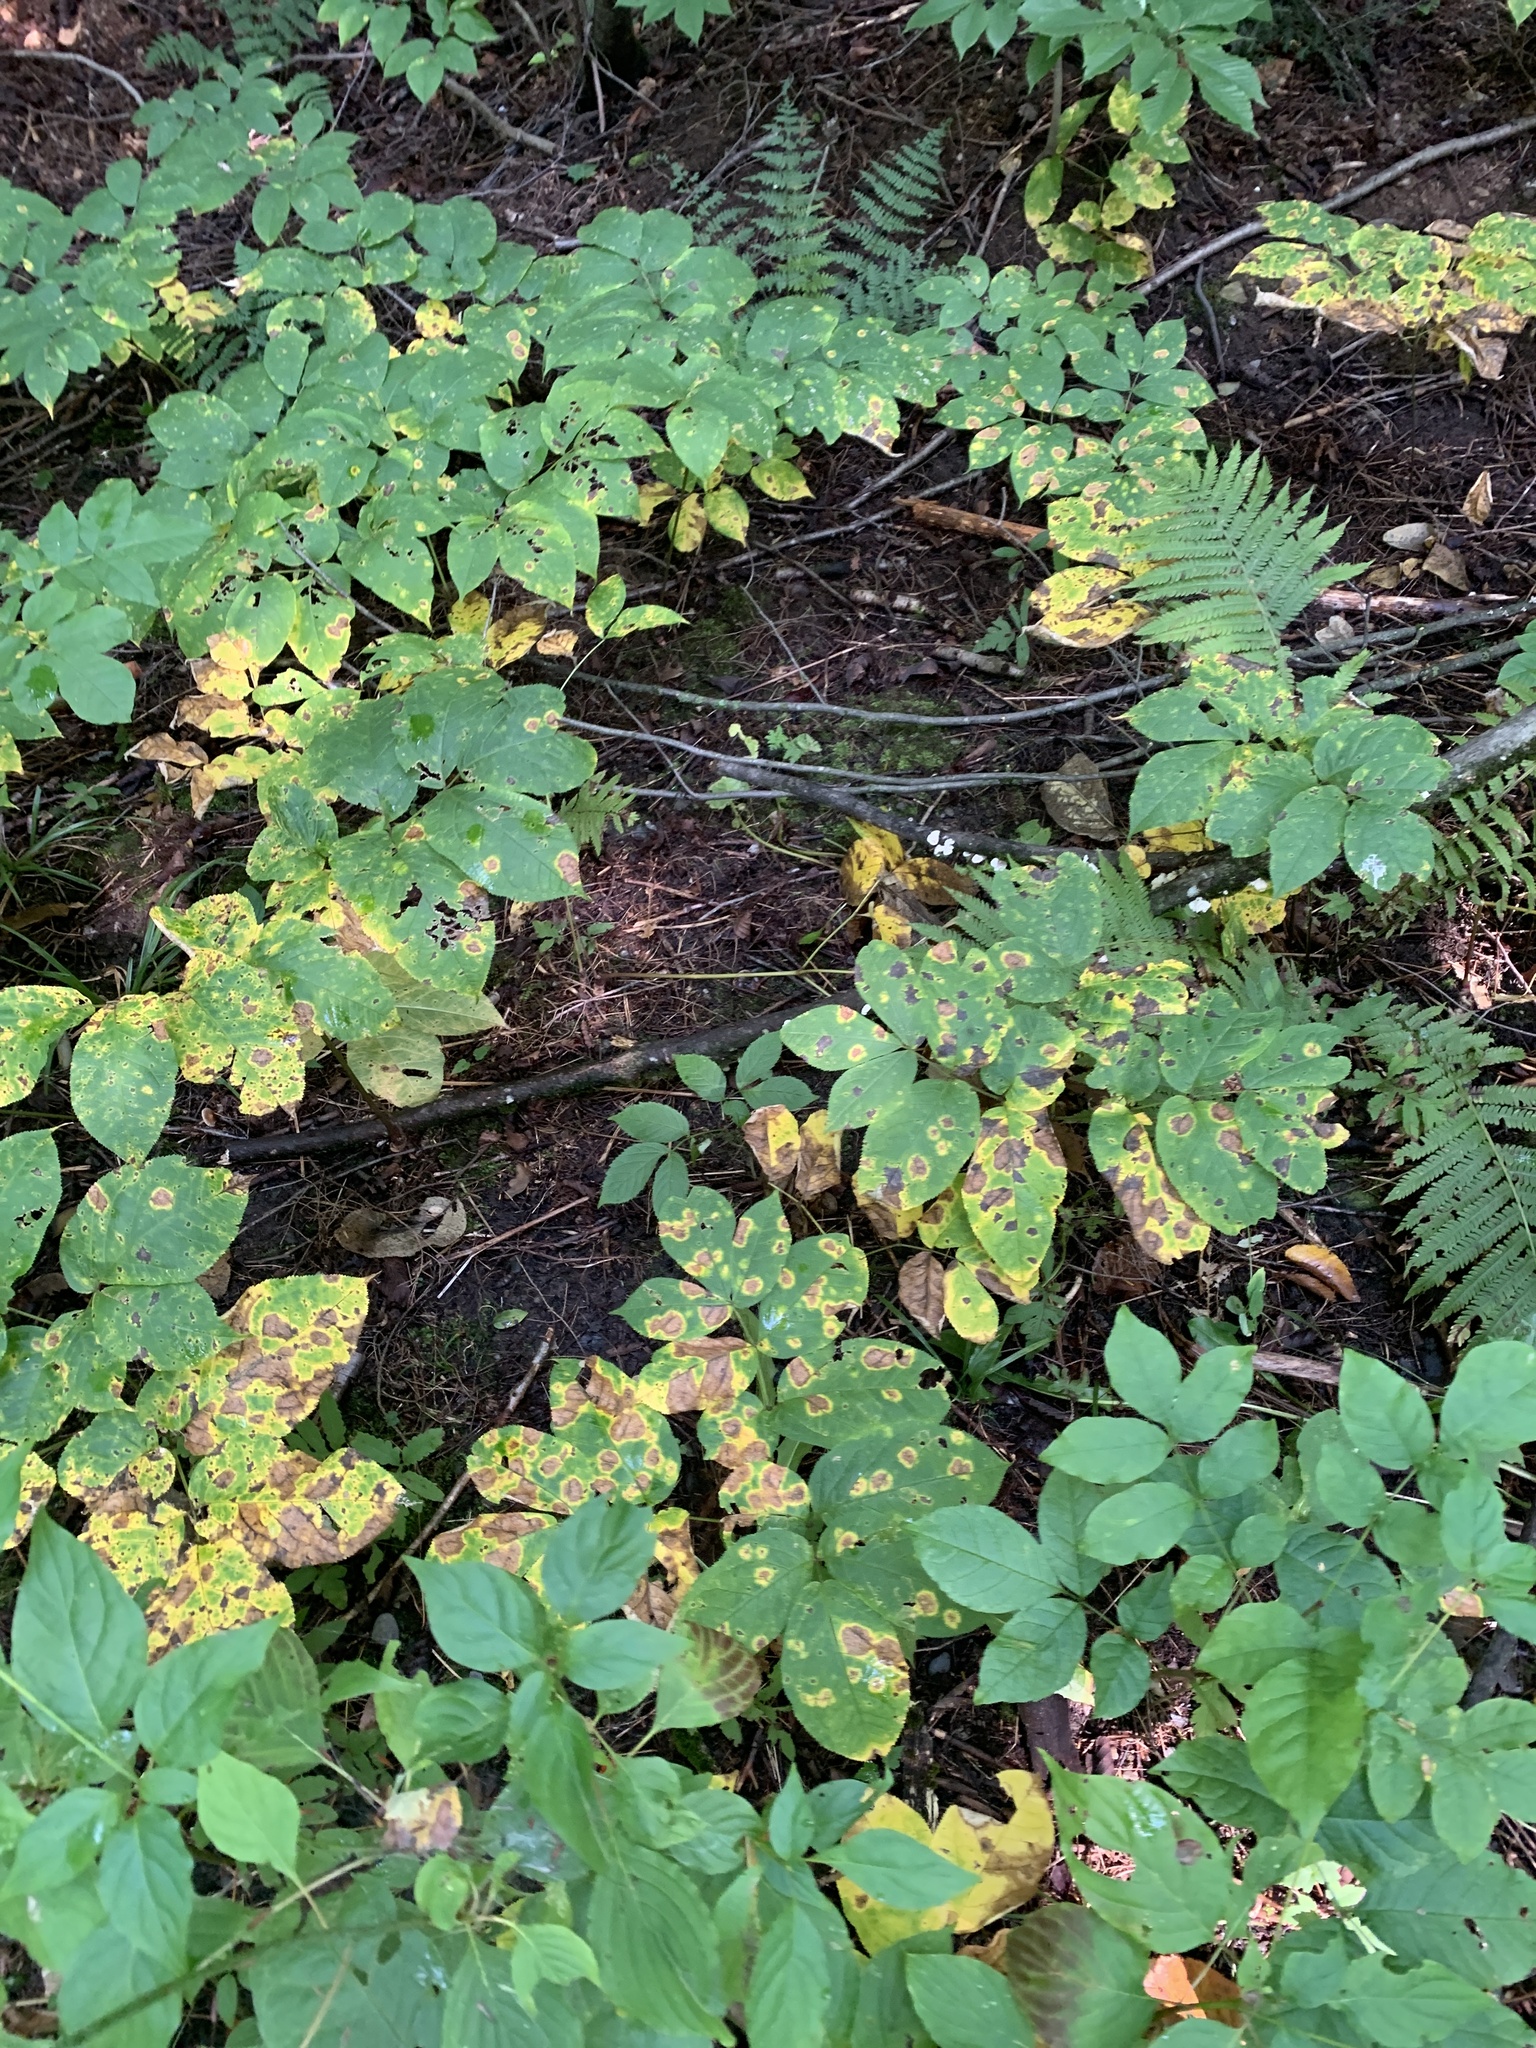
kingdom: Plantae
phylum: Tracheophyta
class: Magnoliopsida
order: Apiales
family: Araliaceae
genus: Aralia
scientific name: Aralia nudicaulis
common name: Wild sarsaparilla
